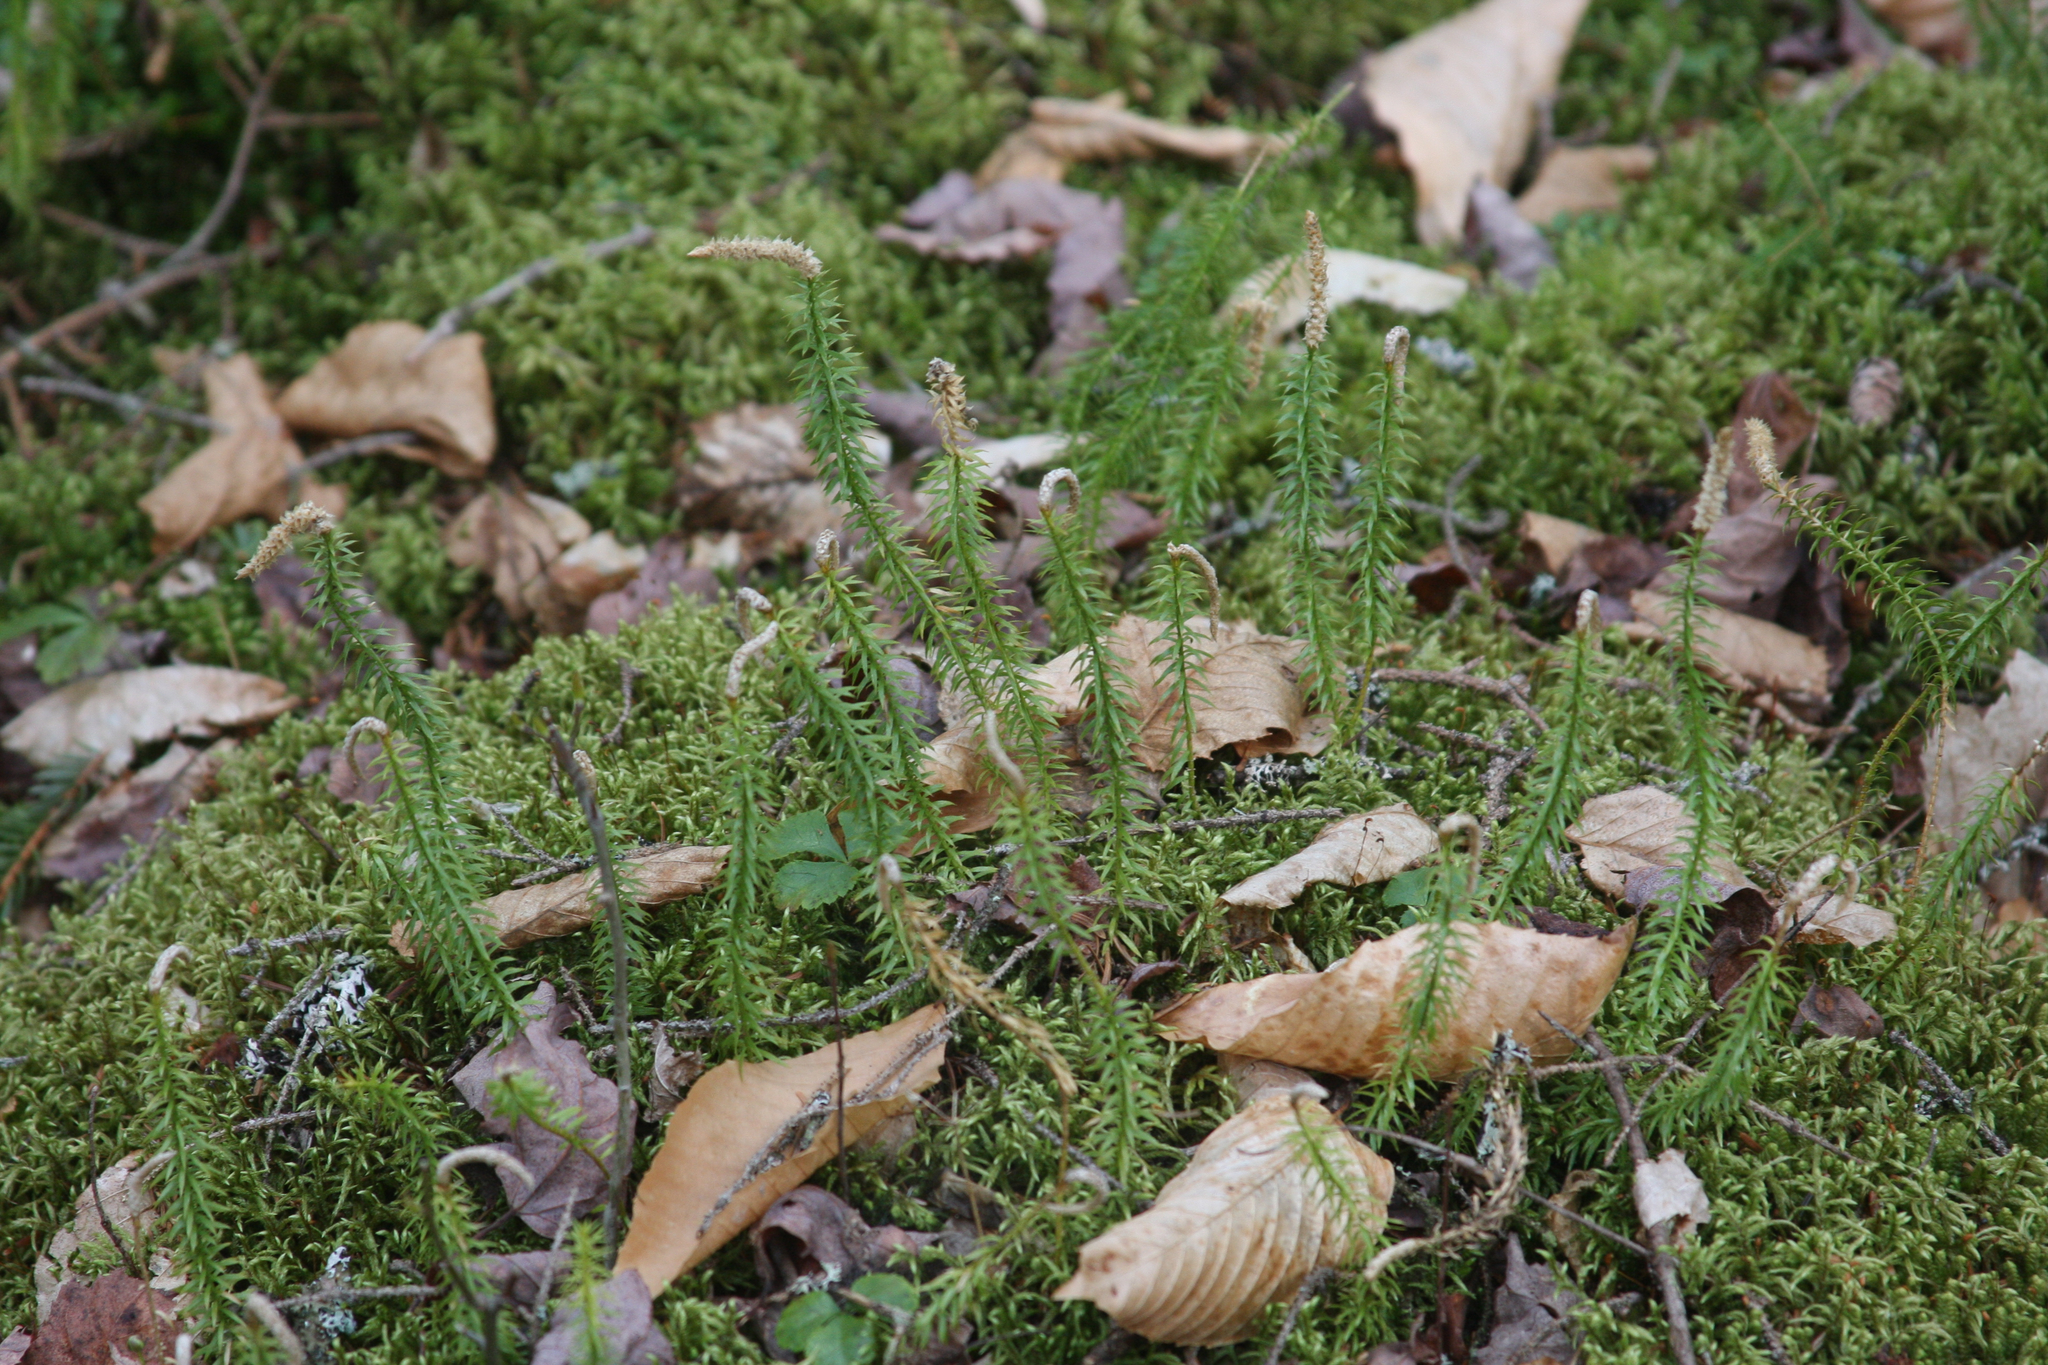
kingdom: Plantae
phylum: Tracheophyta
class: Lycopodiopsida
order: Lycopodiales
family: Lycopodiaceae
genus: Spinulum
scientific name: Spinulum annotinum
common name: Interrupted club-moss
